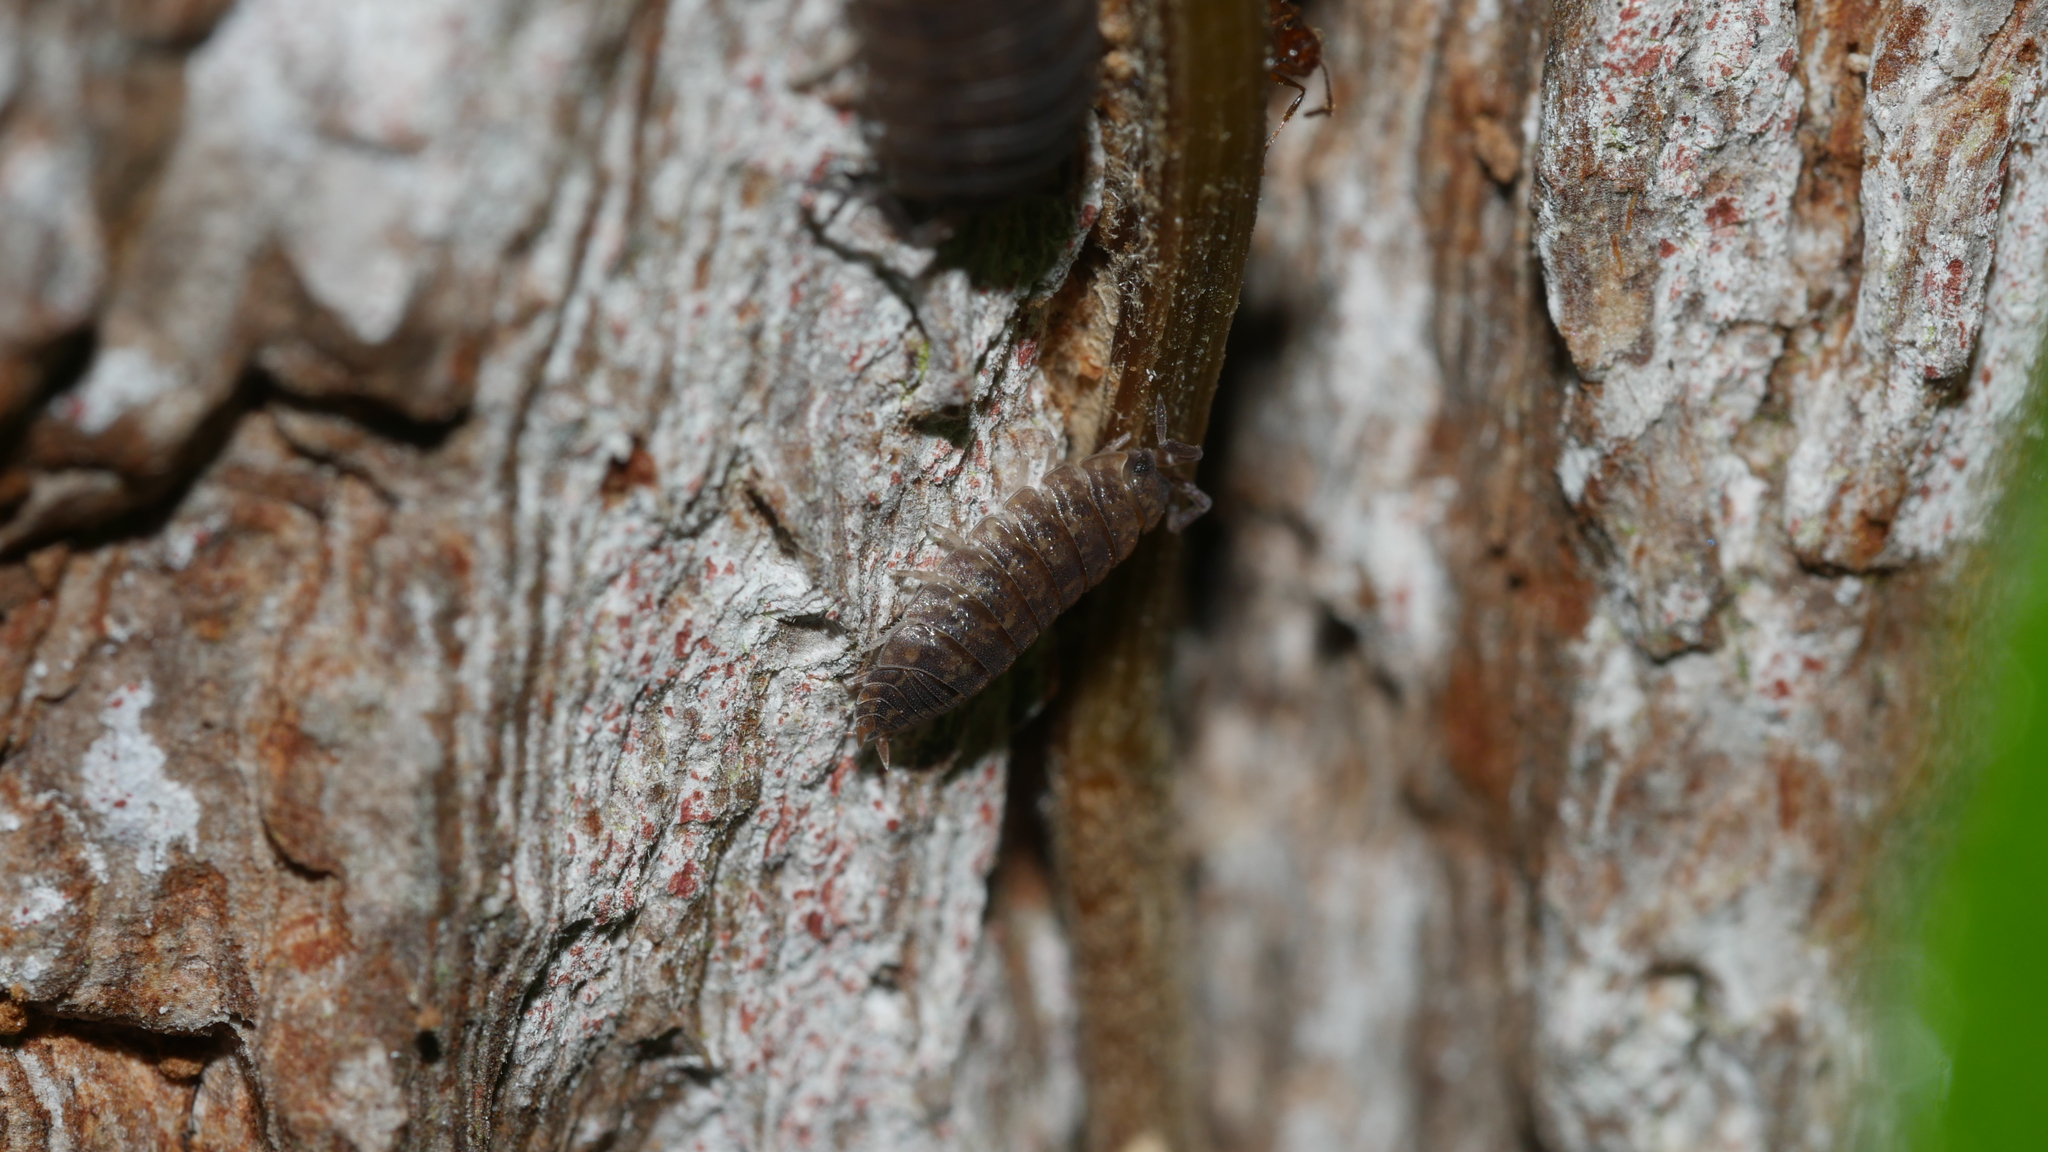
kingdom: Animalia
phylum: Arthropoda
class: Malacostraca
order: Isopoda
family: Porcellionidae
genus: Porcellio
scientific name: Porcellio scaber
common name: Common rough woodlouse
